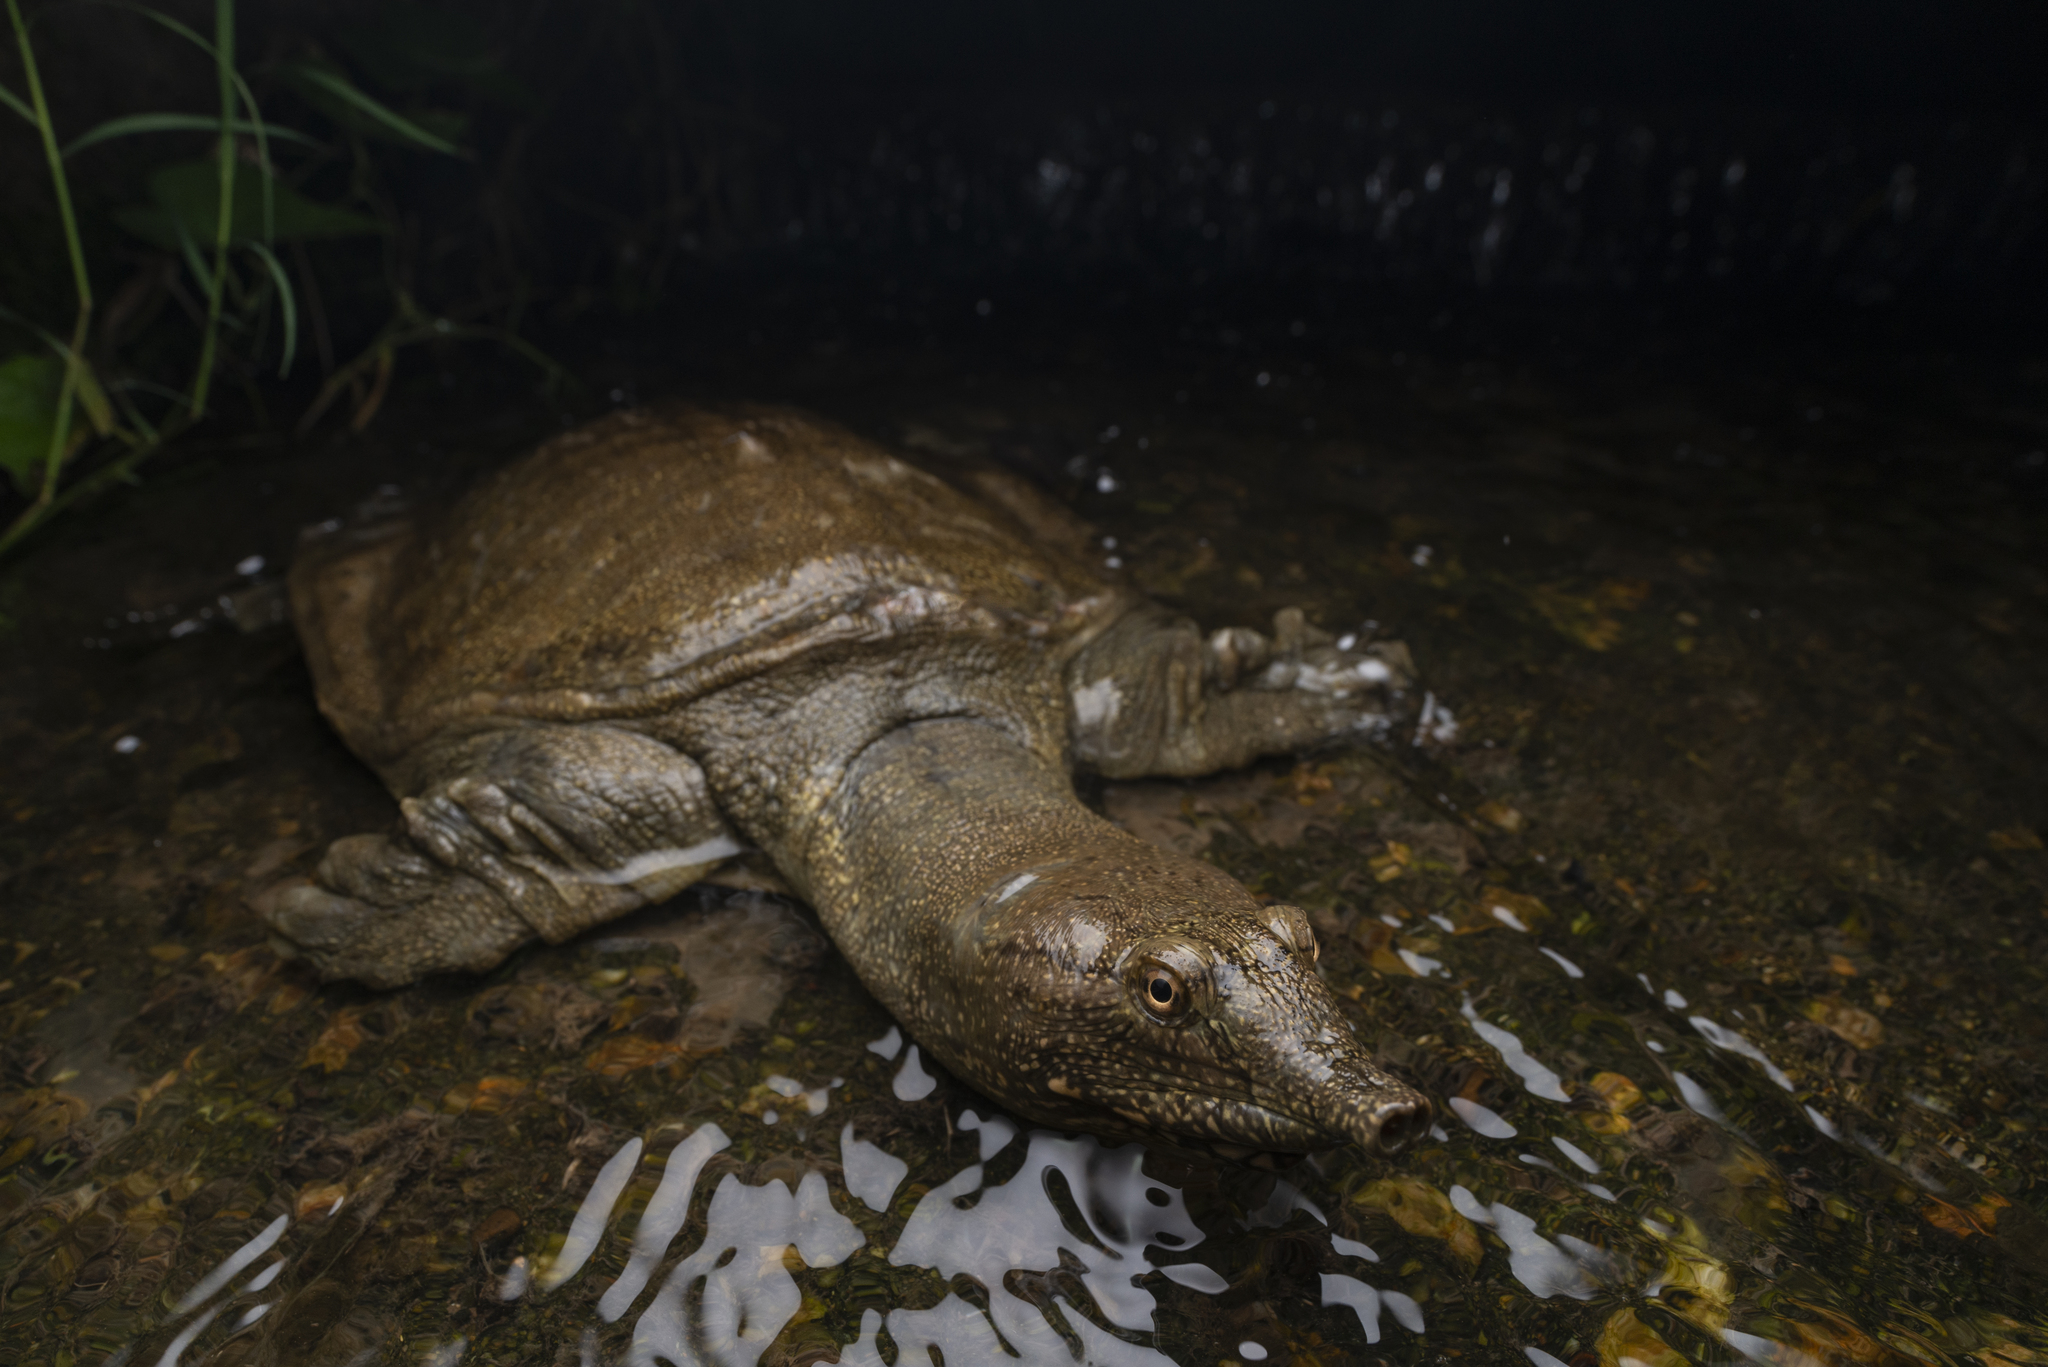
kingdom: Animalia
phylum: Chordata
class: Testudines
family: Trionychidae
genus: Pelodiscus
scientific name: Pelodiscus sinensis
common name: Chinese softshell turtle
